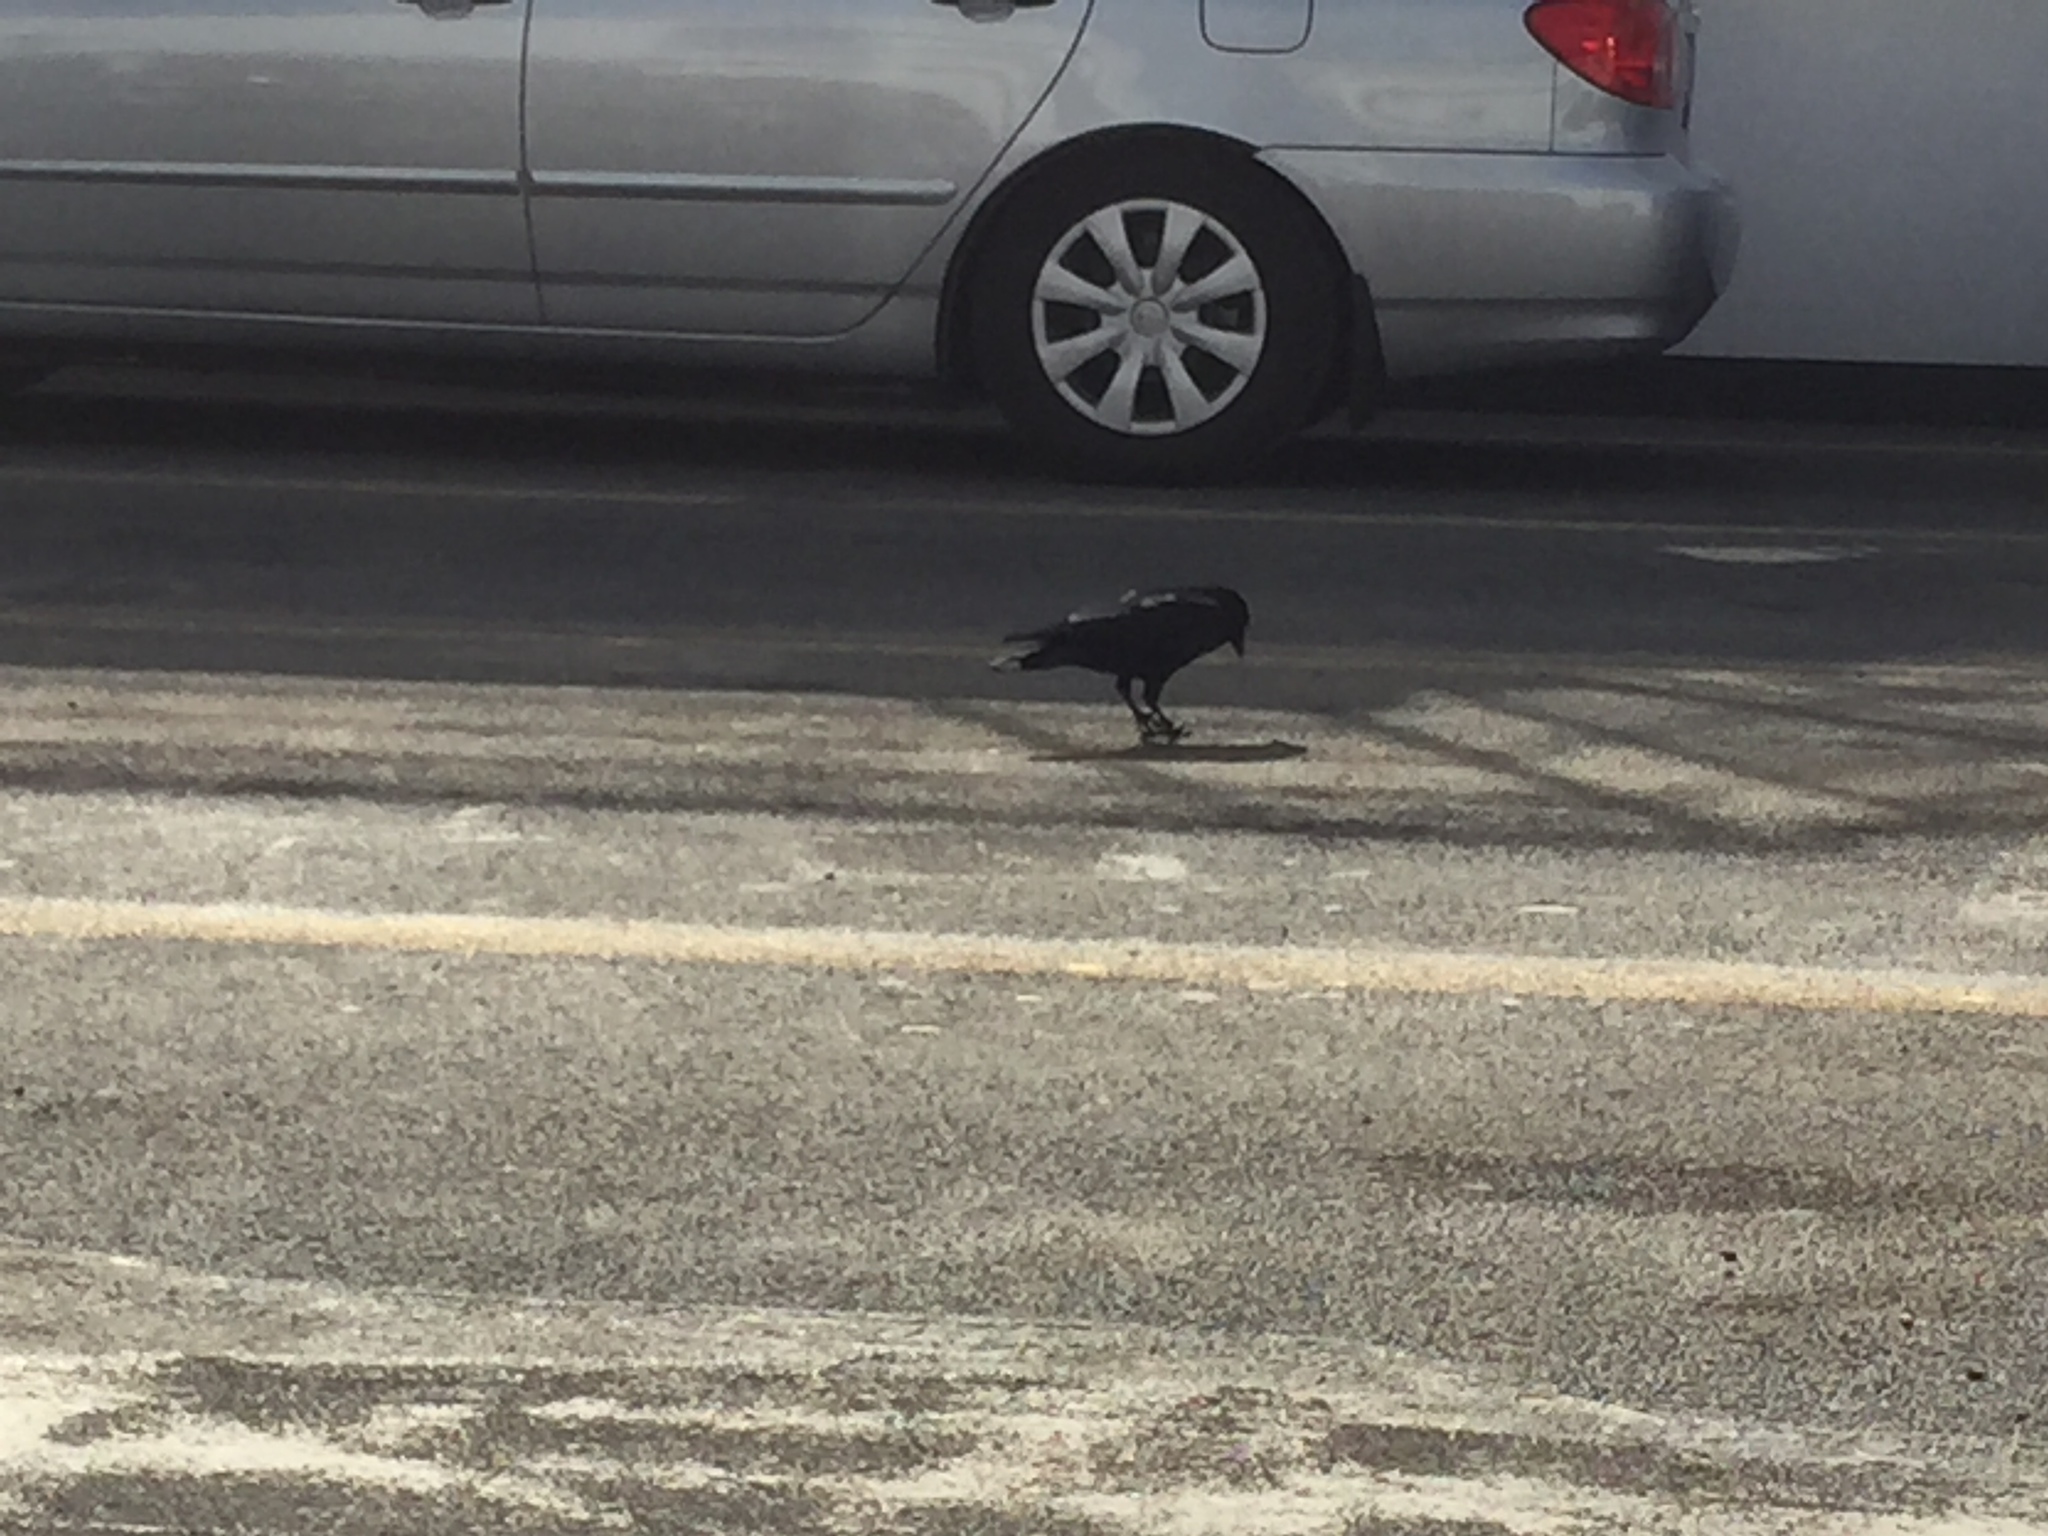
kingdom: Animalia
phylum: Chordata
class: Aves
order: Passeriformes
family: Corvidae
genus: Corvus
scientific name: Corvus
